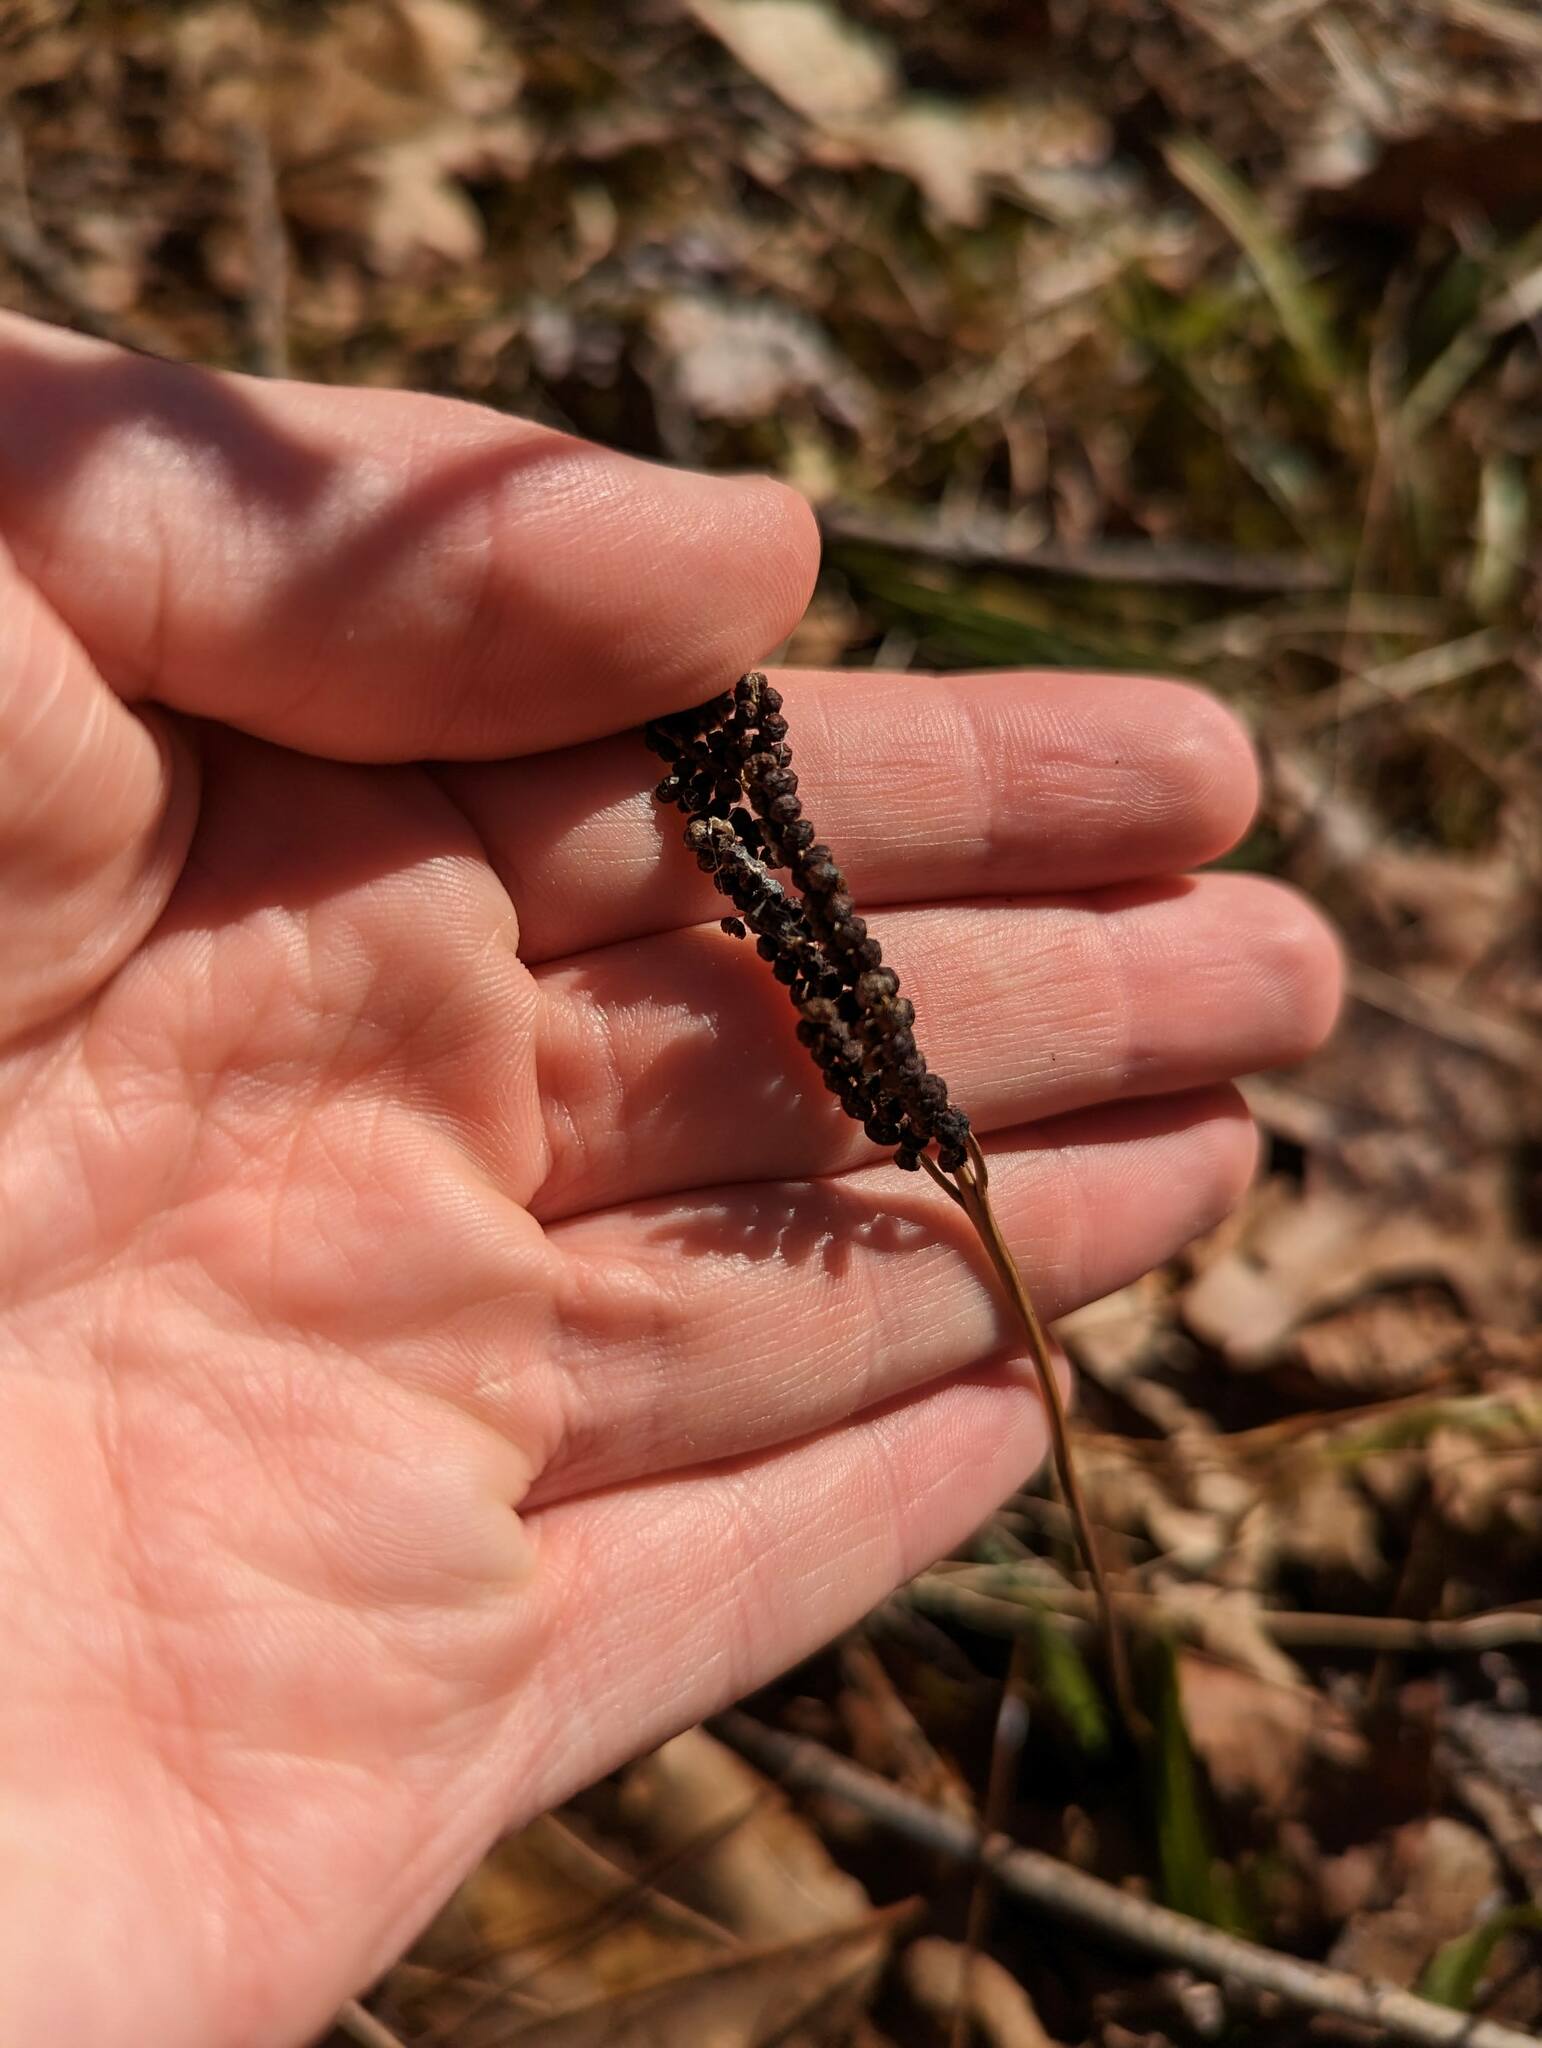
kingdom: Plantae
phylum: Tracheophyta
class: Polypodiopsida
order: Polypodiales
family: Onocleaceae
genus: Onoclea
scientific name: Onoclea sensibilis
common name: Sensitive fern
